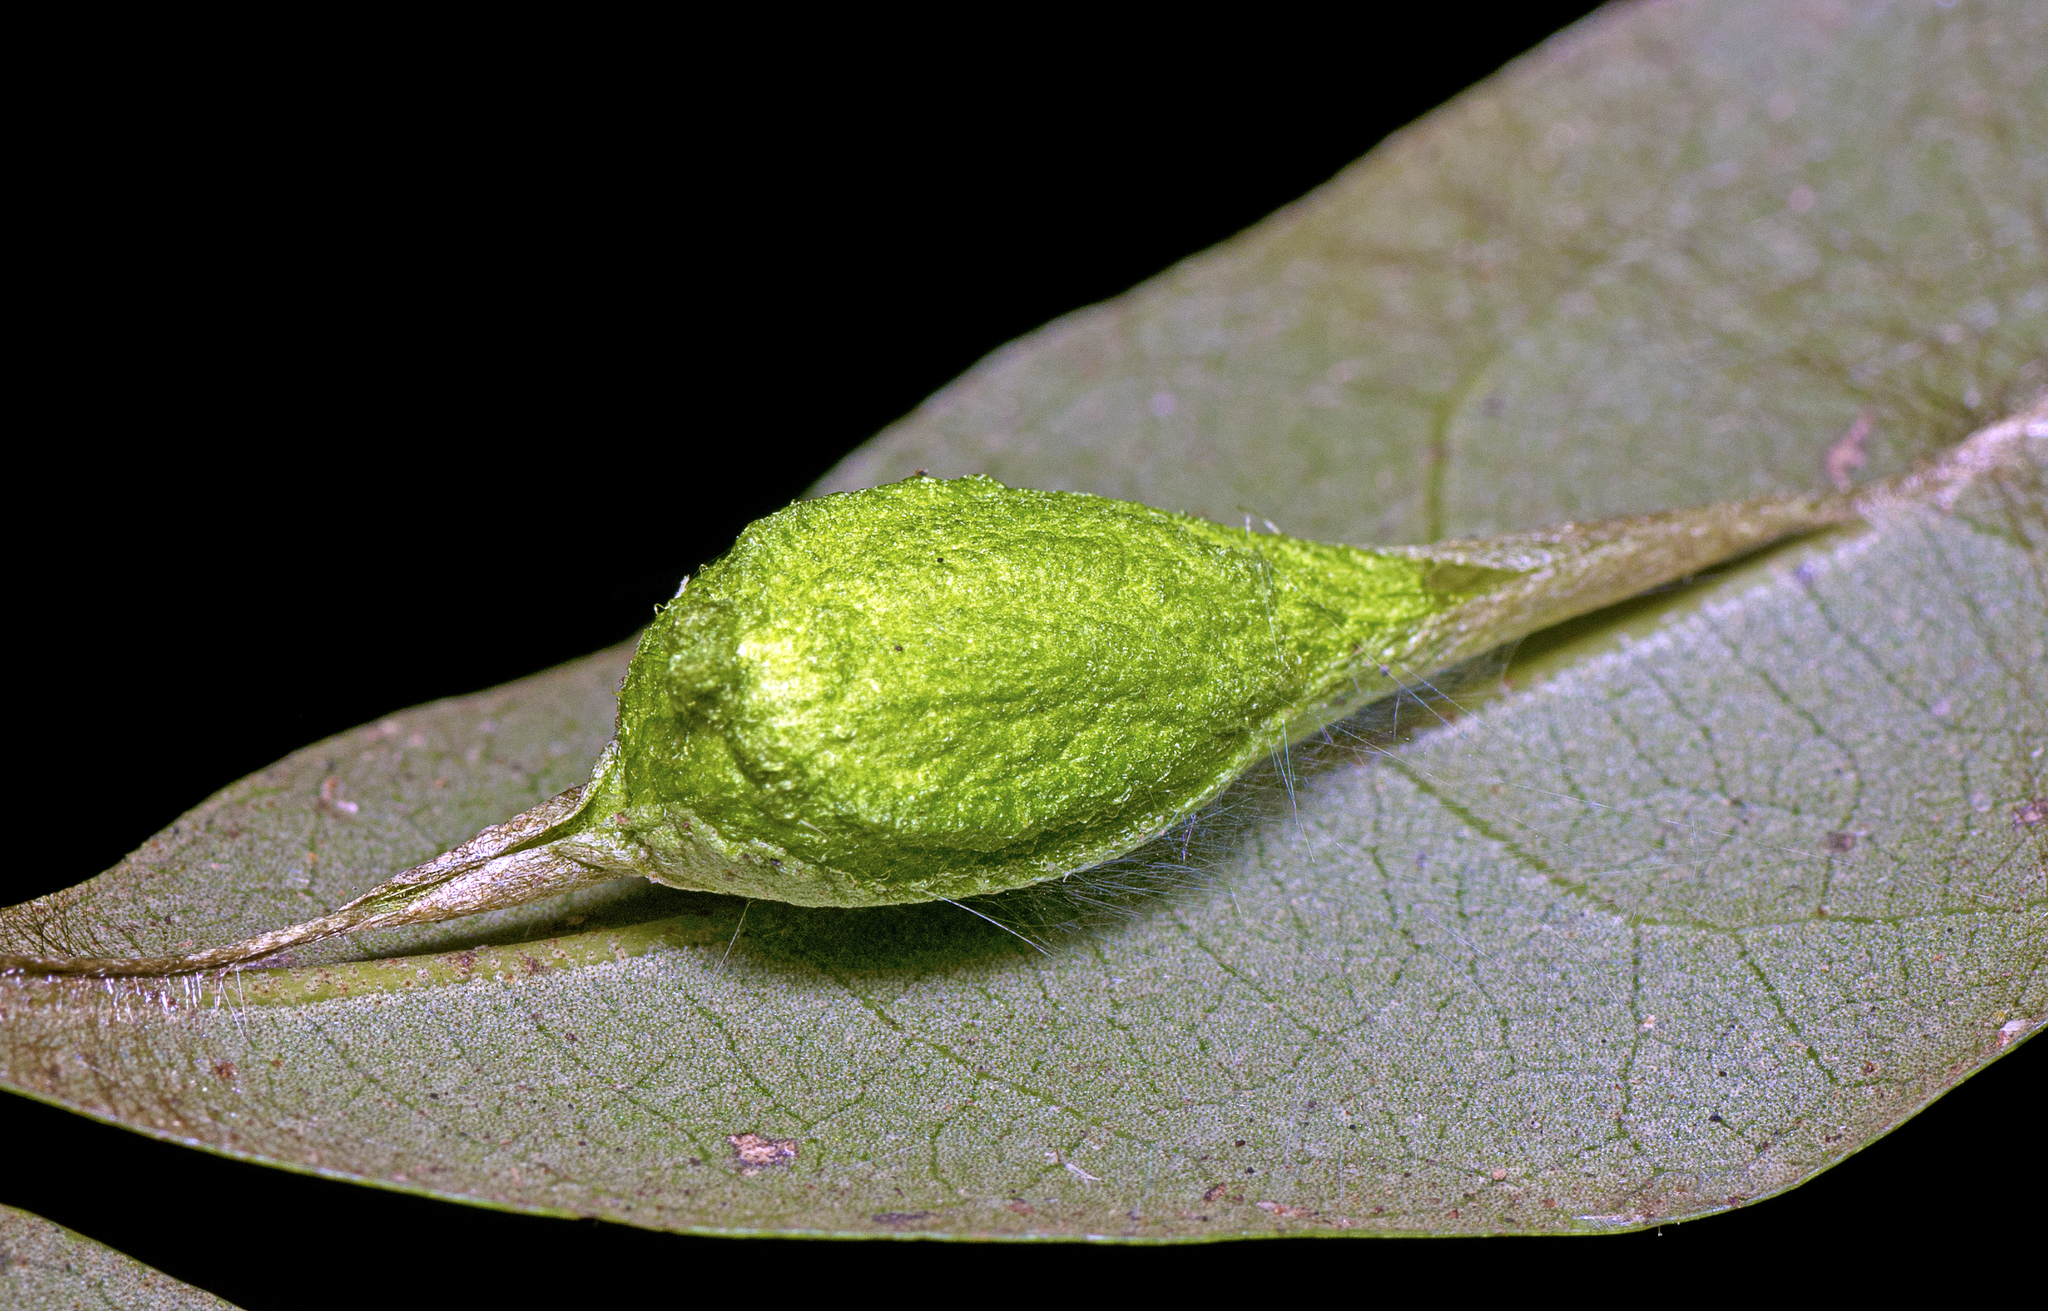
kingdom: Animalia
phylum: Arthropoda
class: Insecta
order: Lepidoptera
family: Bombycidae
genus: Gastridiota
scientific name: Gastridiota adoxima
